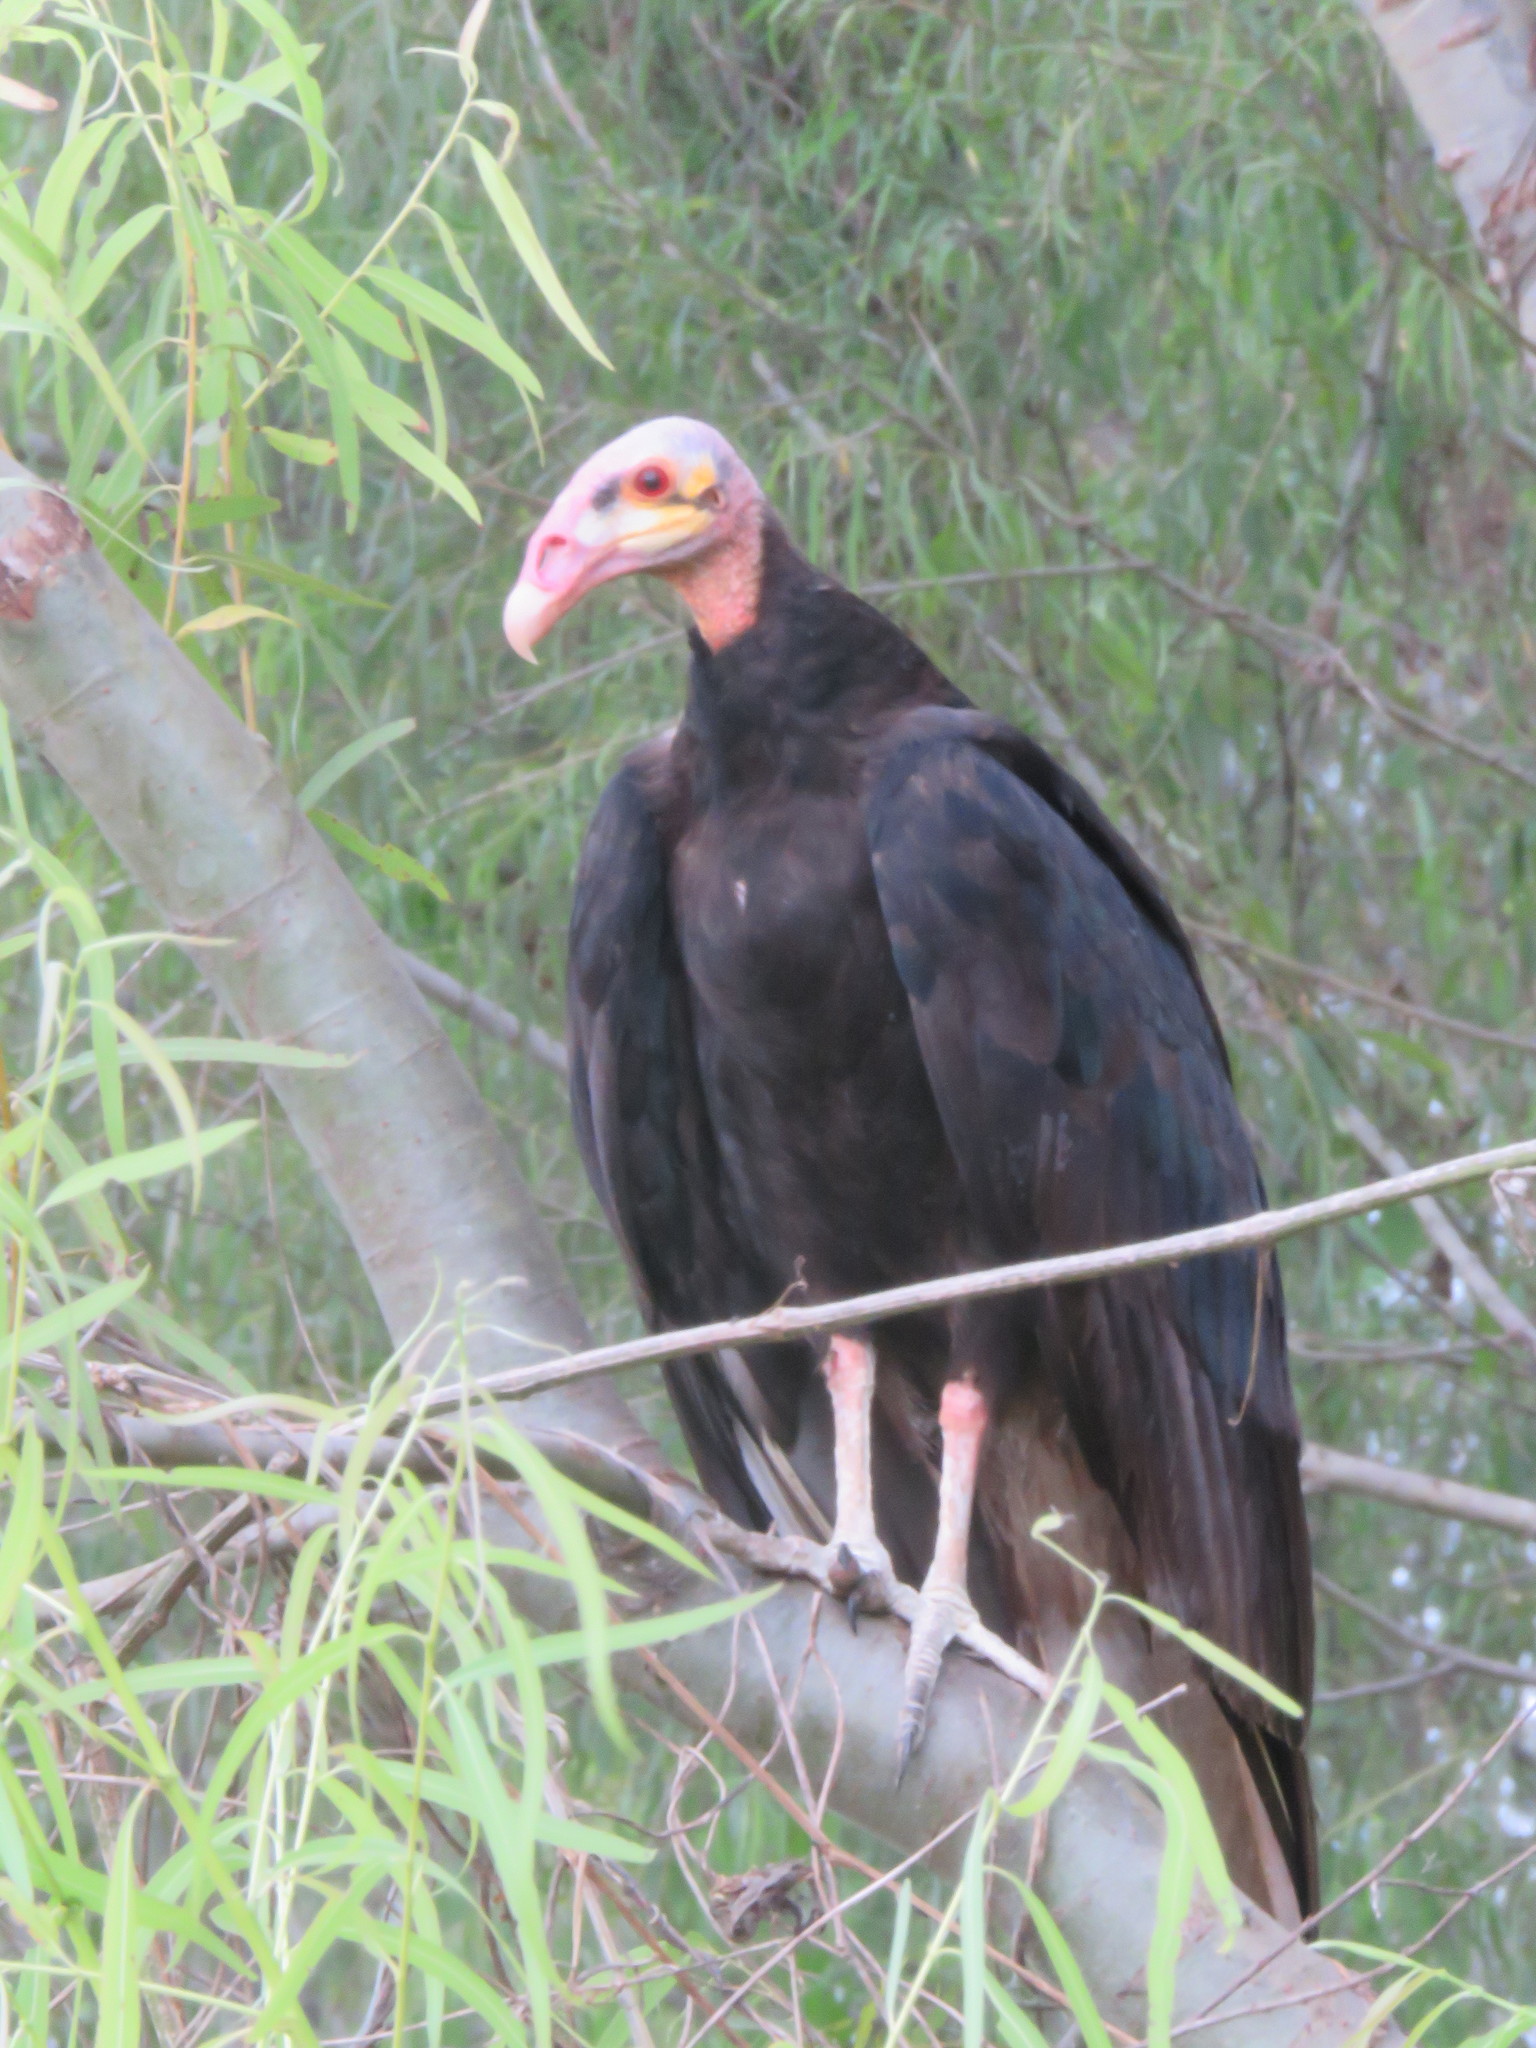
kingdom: Animalia
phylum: Chordata
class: Aves
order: Accipitriformes
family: Cathartidae
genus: Cathartes
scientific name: Cathartes burrovianus
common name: Lesser yellow-headed vulture
